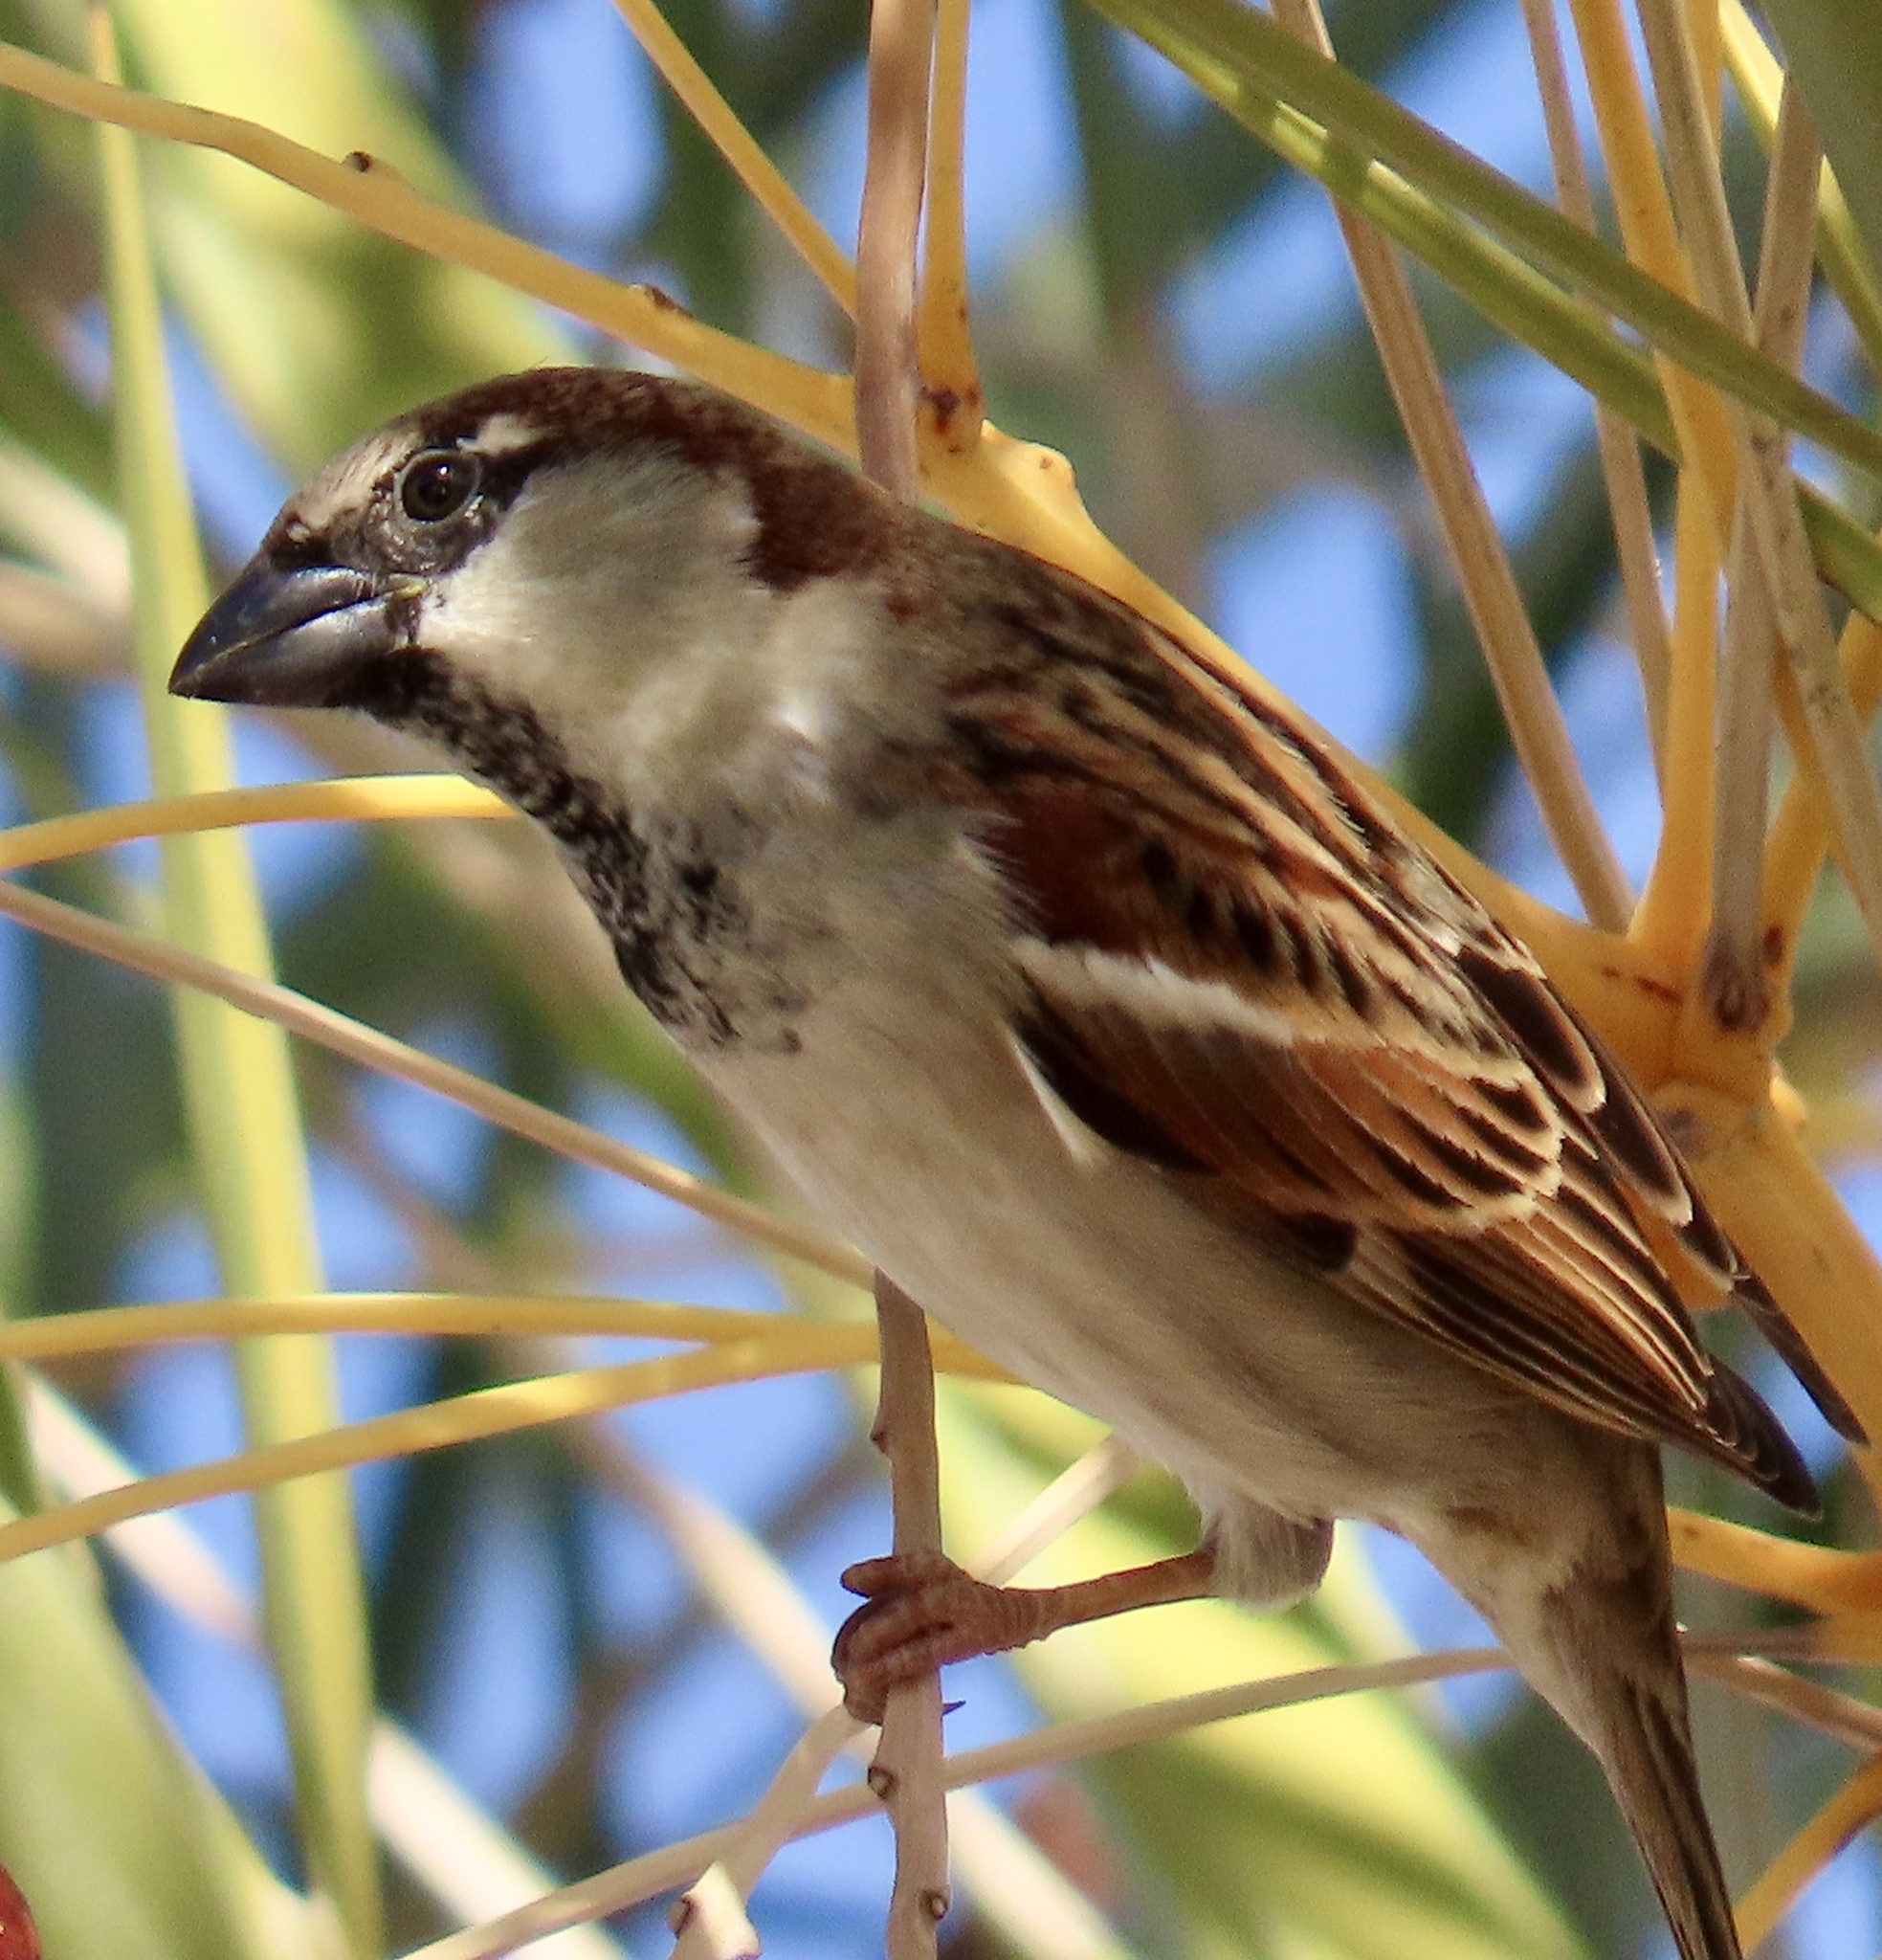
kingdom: Animalia
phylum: Chordata
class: Aves
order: Passeriformes
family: Passeridae
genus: Passer
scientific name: Passer domesticus
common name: House sparrow
